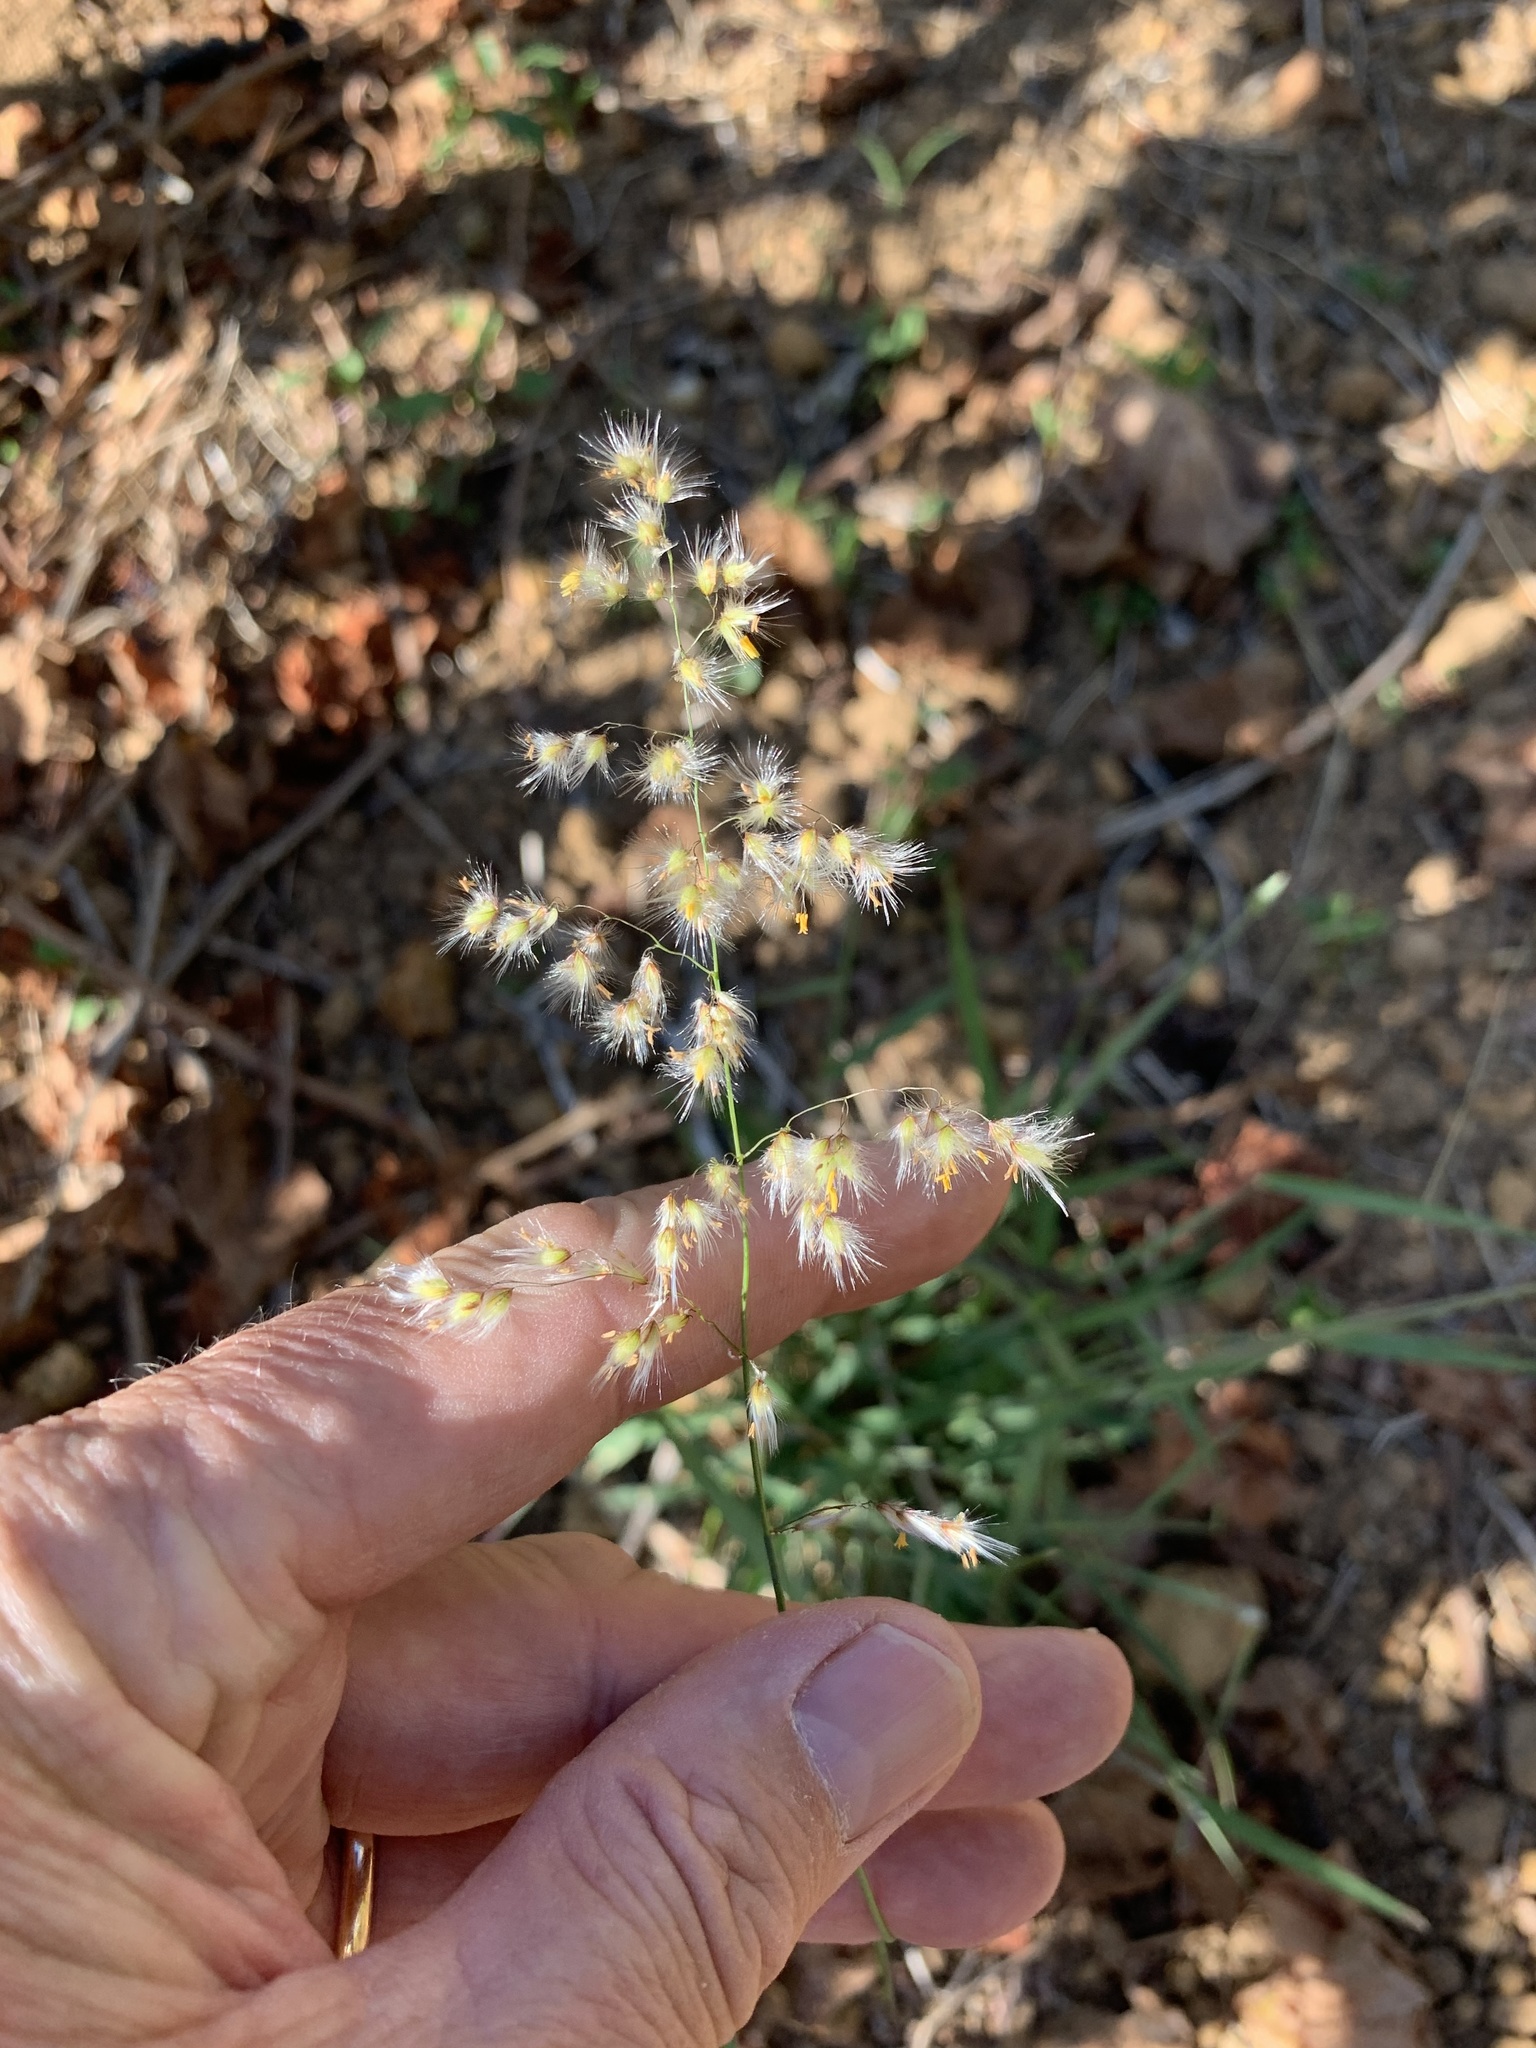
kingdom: Plantae
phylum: Tracheophyta
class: Liliopsida
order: Poales
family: Poaceae
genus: Melinis
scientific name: Melinis repens
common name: Rose natal grass
